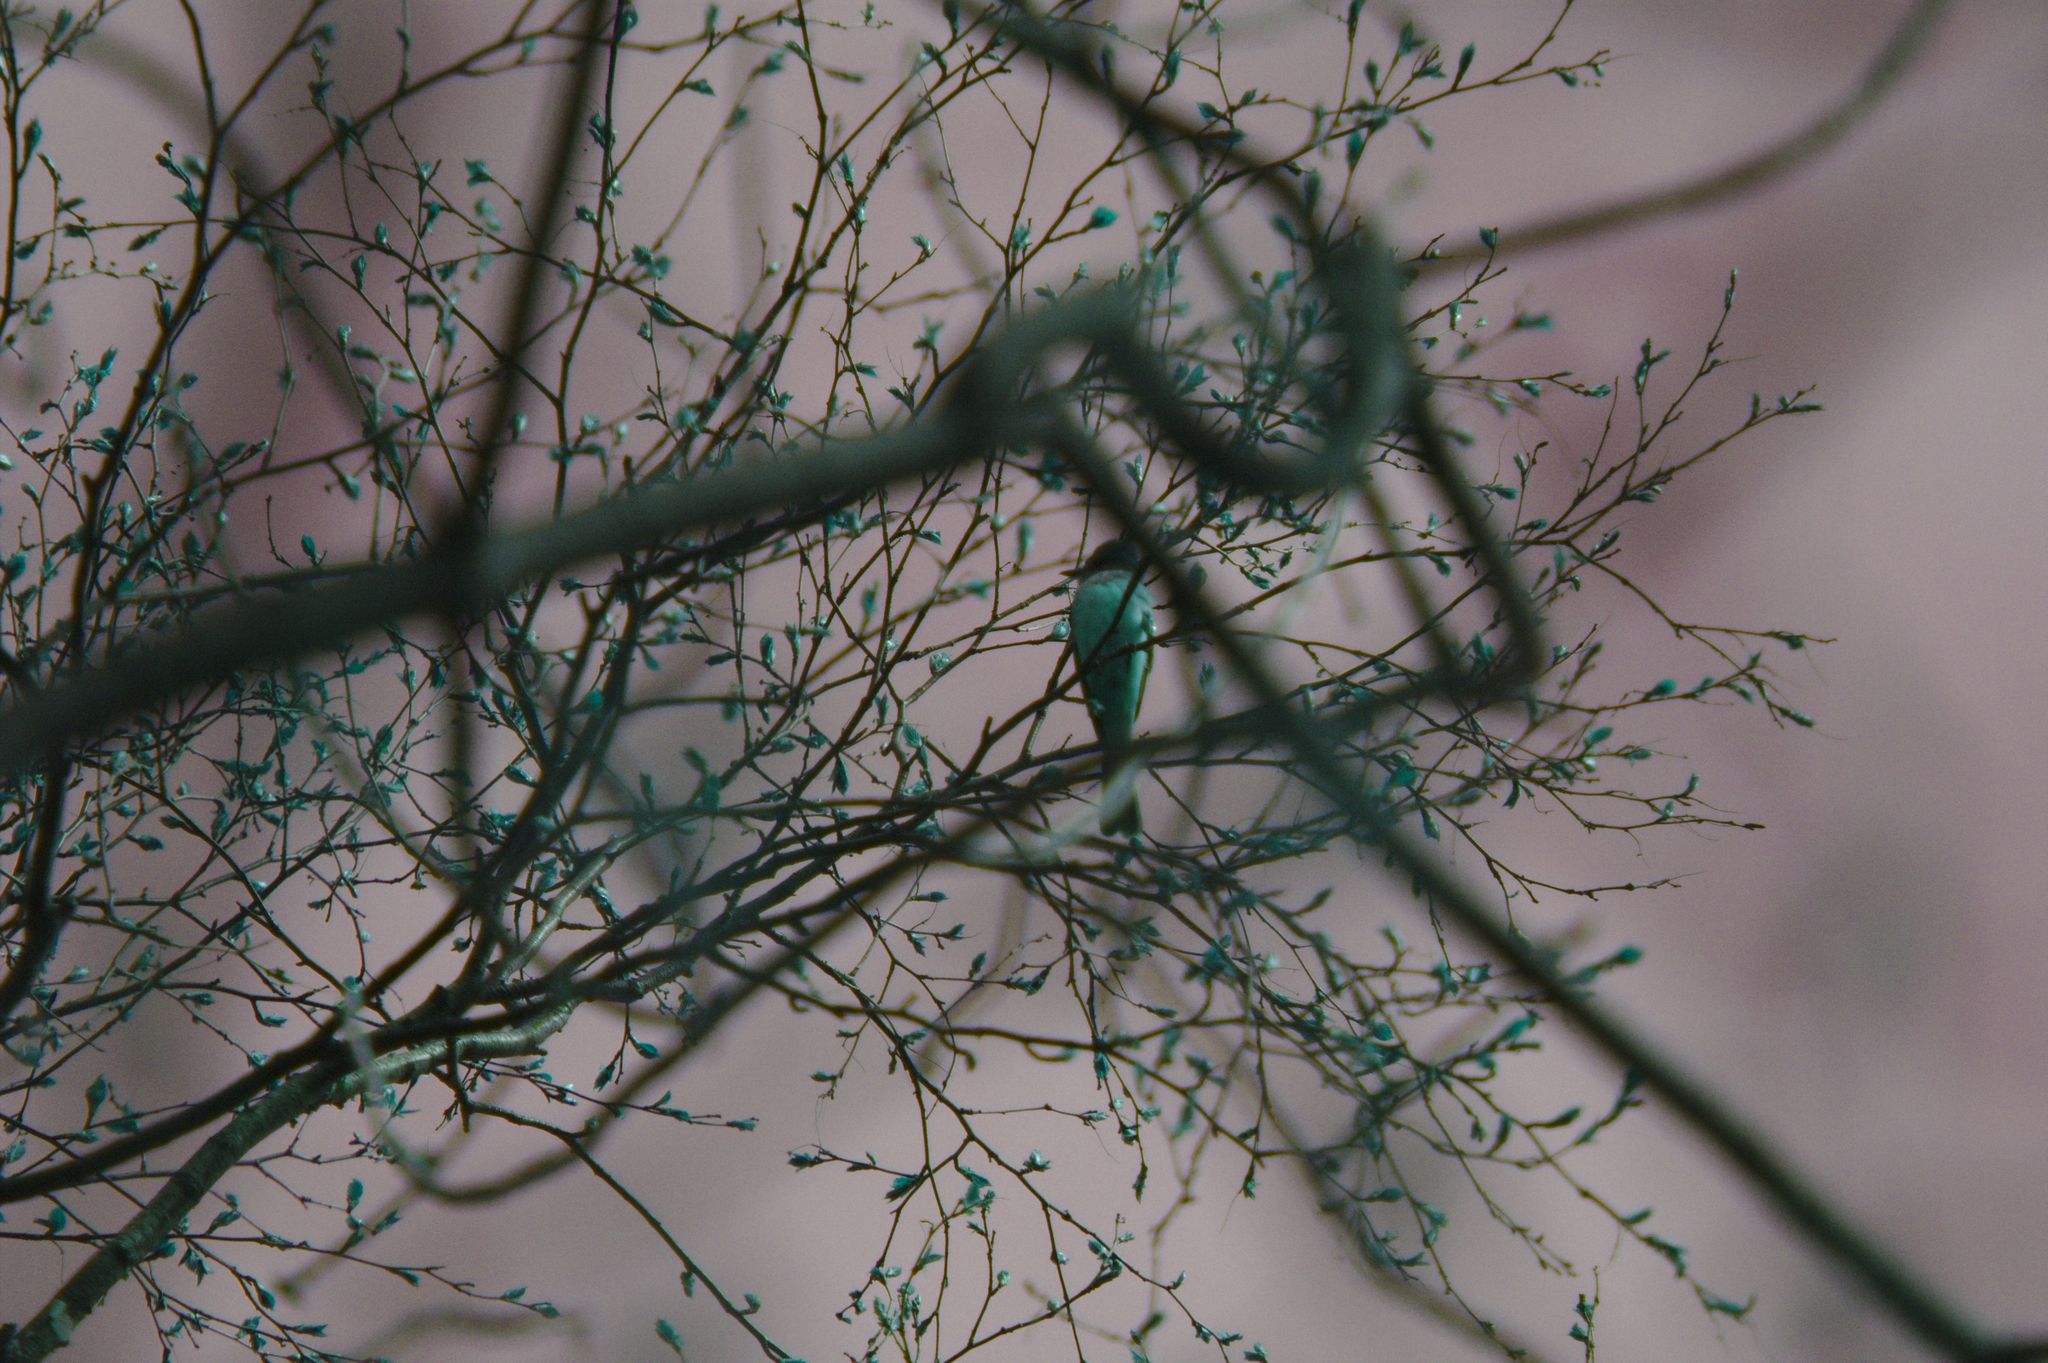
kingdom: Animalia
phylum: Chordata
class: Aves
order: Passeriformes
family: Tyrannidae
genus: Myiarchus
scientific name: Myiarchus crinitus
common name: Great crested flycatcher
